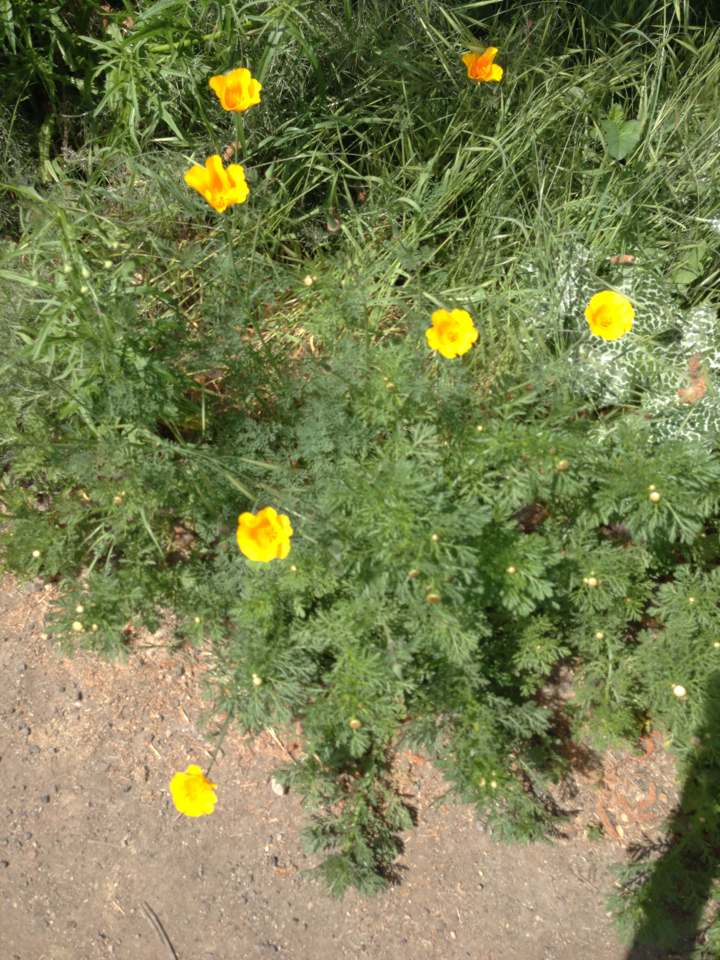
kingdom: Plantae
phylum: Tracheophyta
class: Magnoliopsida
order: Ranunculales
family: Papaveraceae
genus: Eschscholzia
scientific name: Eschscholzia californica
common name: California poppy
